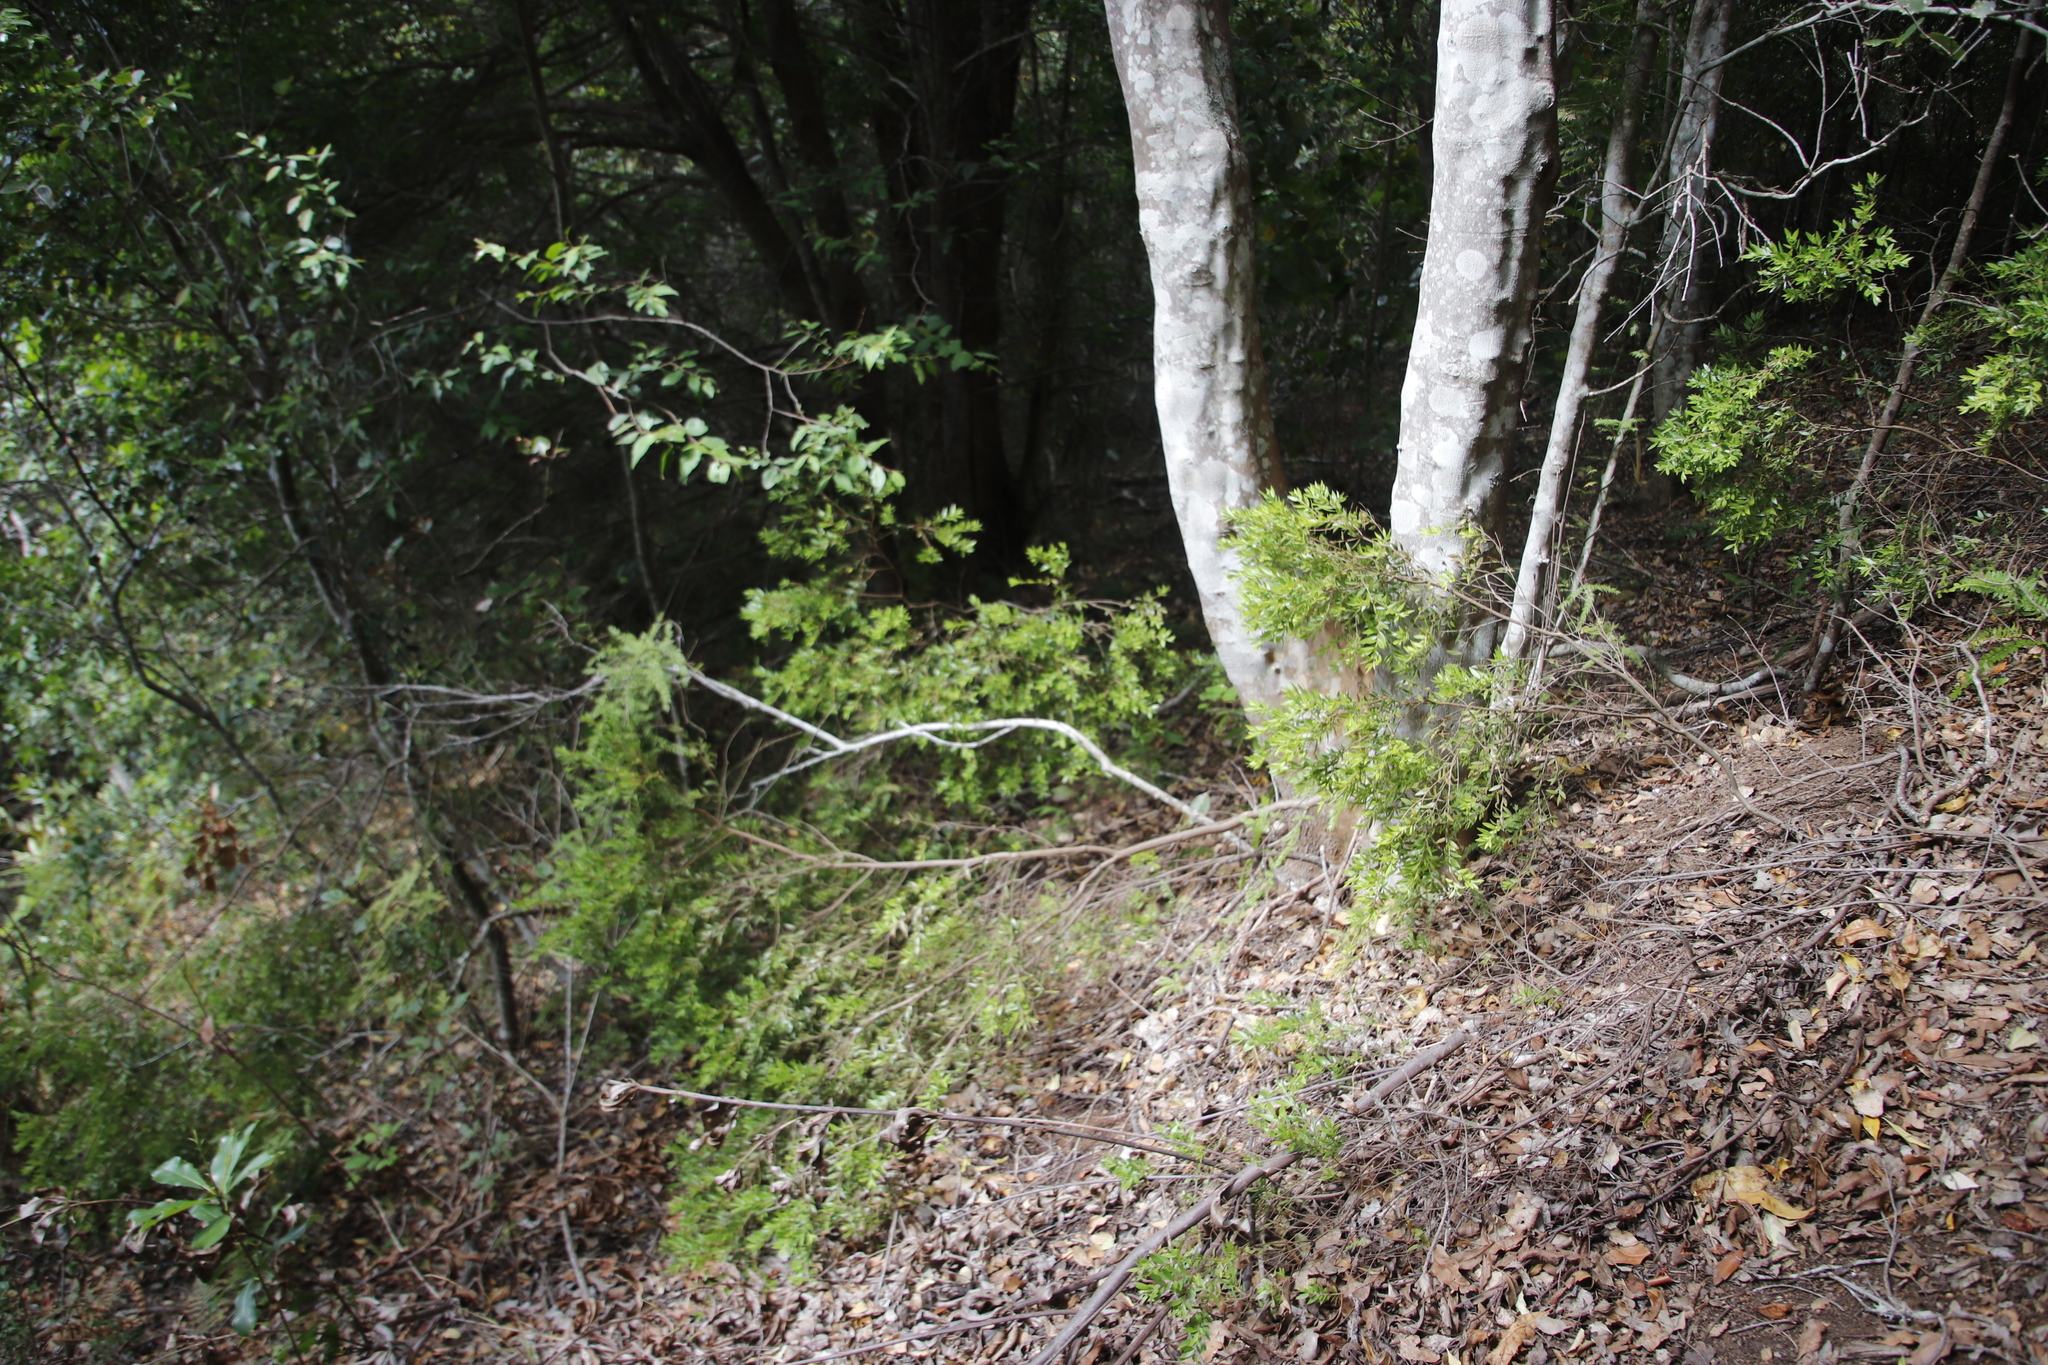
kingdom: Plantae
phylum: Tracheophyta
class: Magnoliopsida
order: Ericales
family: Ebenaceae
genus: Diospyros
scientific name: Diospyros glabra
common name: Fynbos star apple
